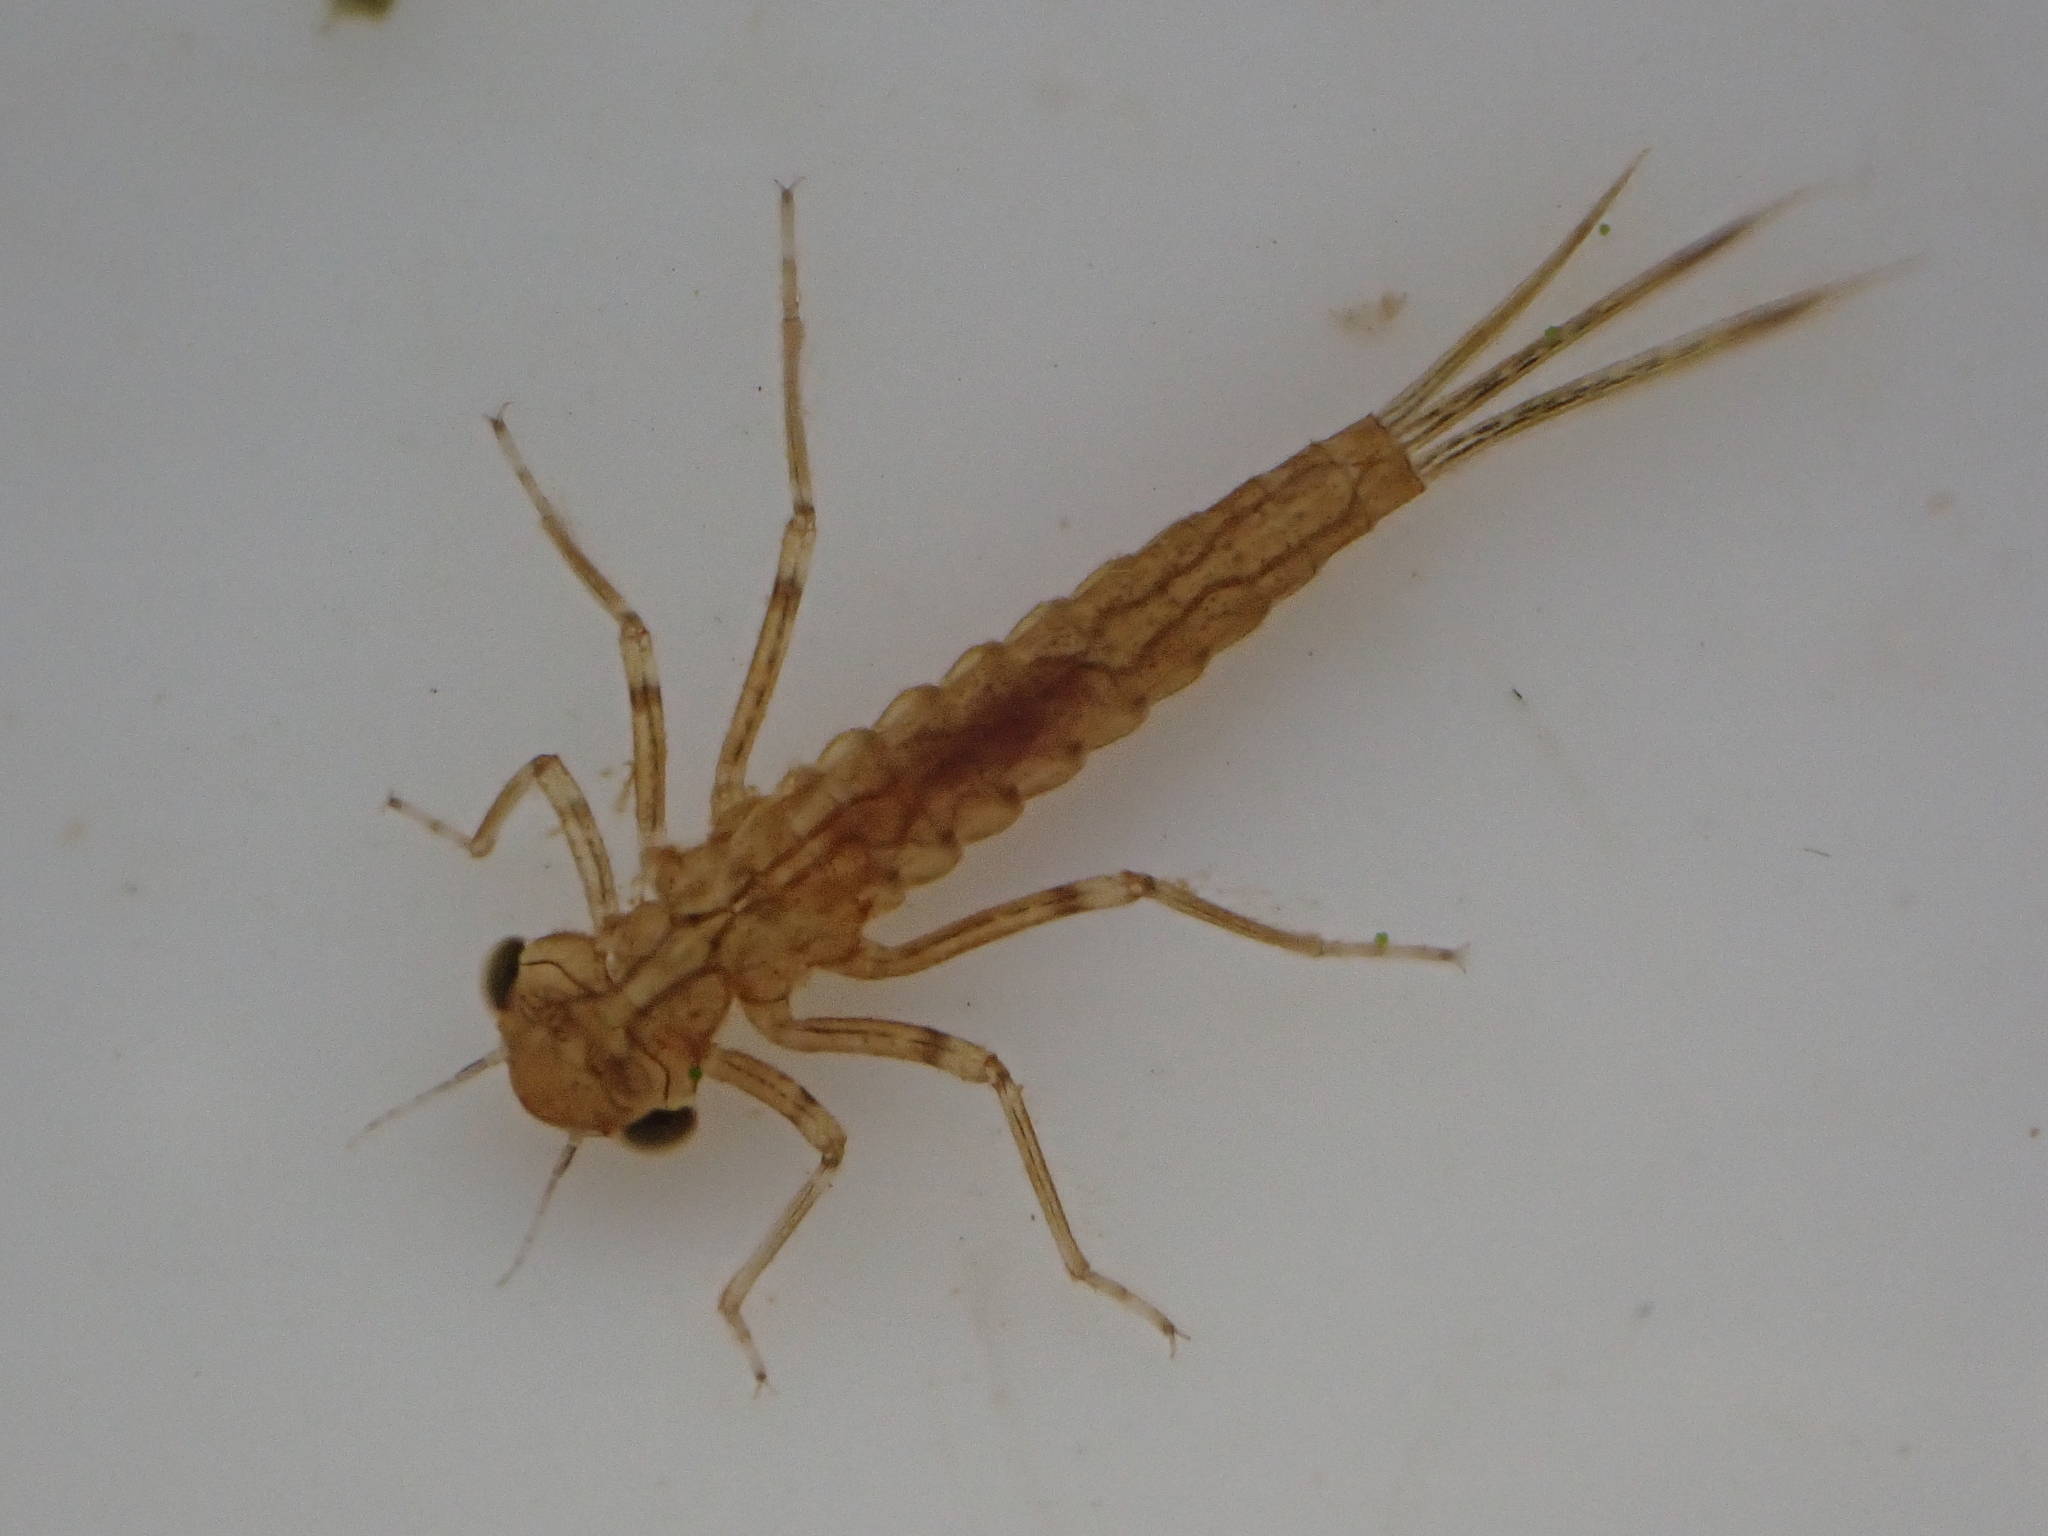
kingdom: Animalia
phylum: Arthropoda
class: Insecta
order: Odonata
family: Coenagrionidae
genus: Xanthocnemis
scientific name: Xanthocnemis zealandica
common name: Common redcoat damselfly
